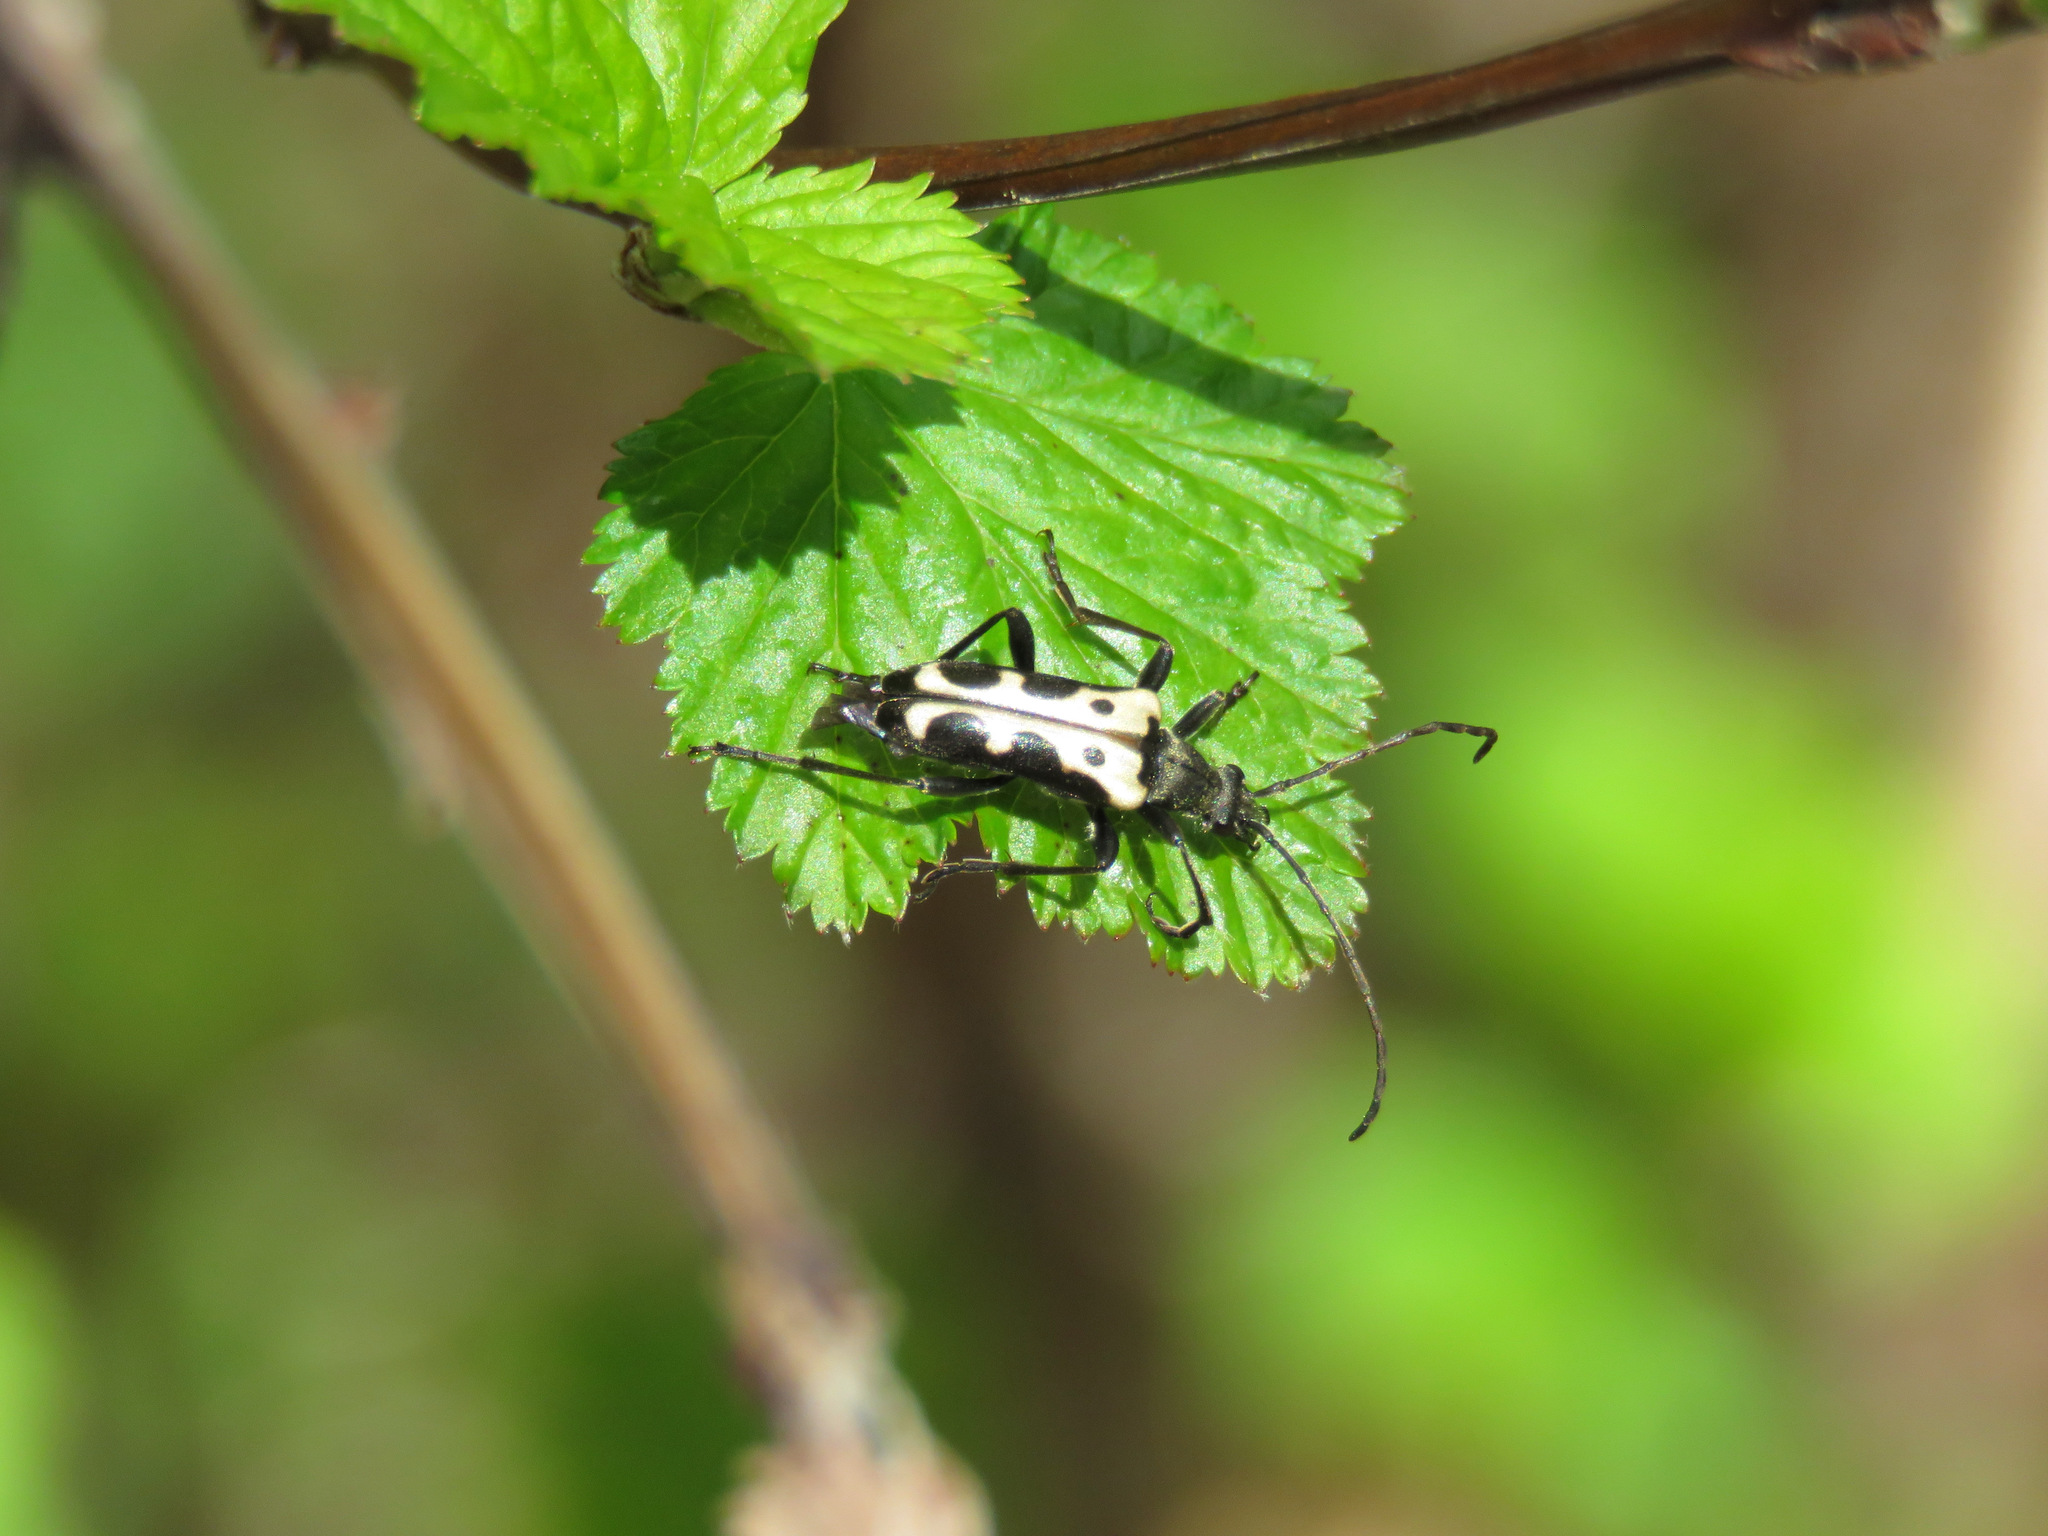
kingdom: Animalia
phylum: Arthropoda
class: Insecta
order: Coleoptera
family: Cerambycidae
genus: Evodinus
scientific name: Evodinus monticola
